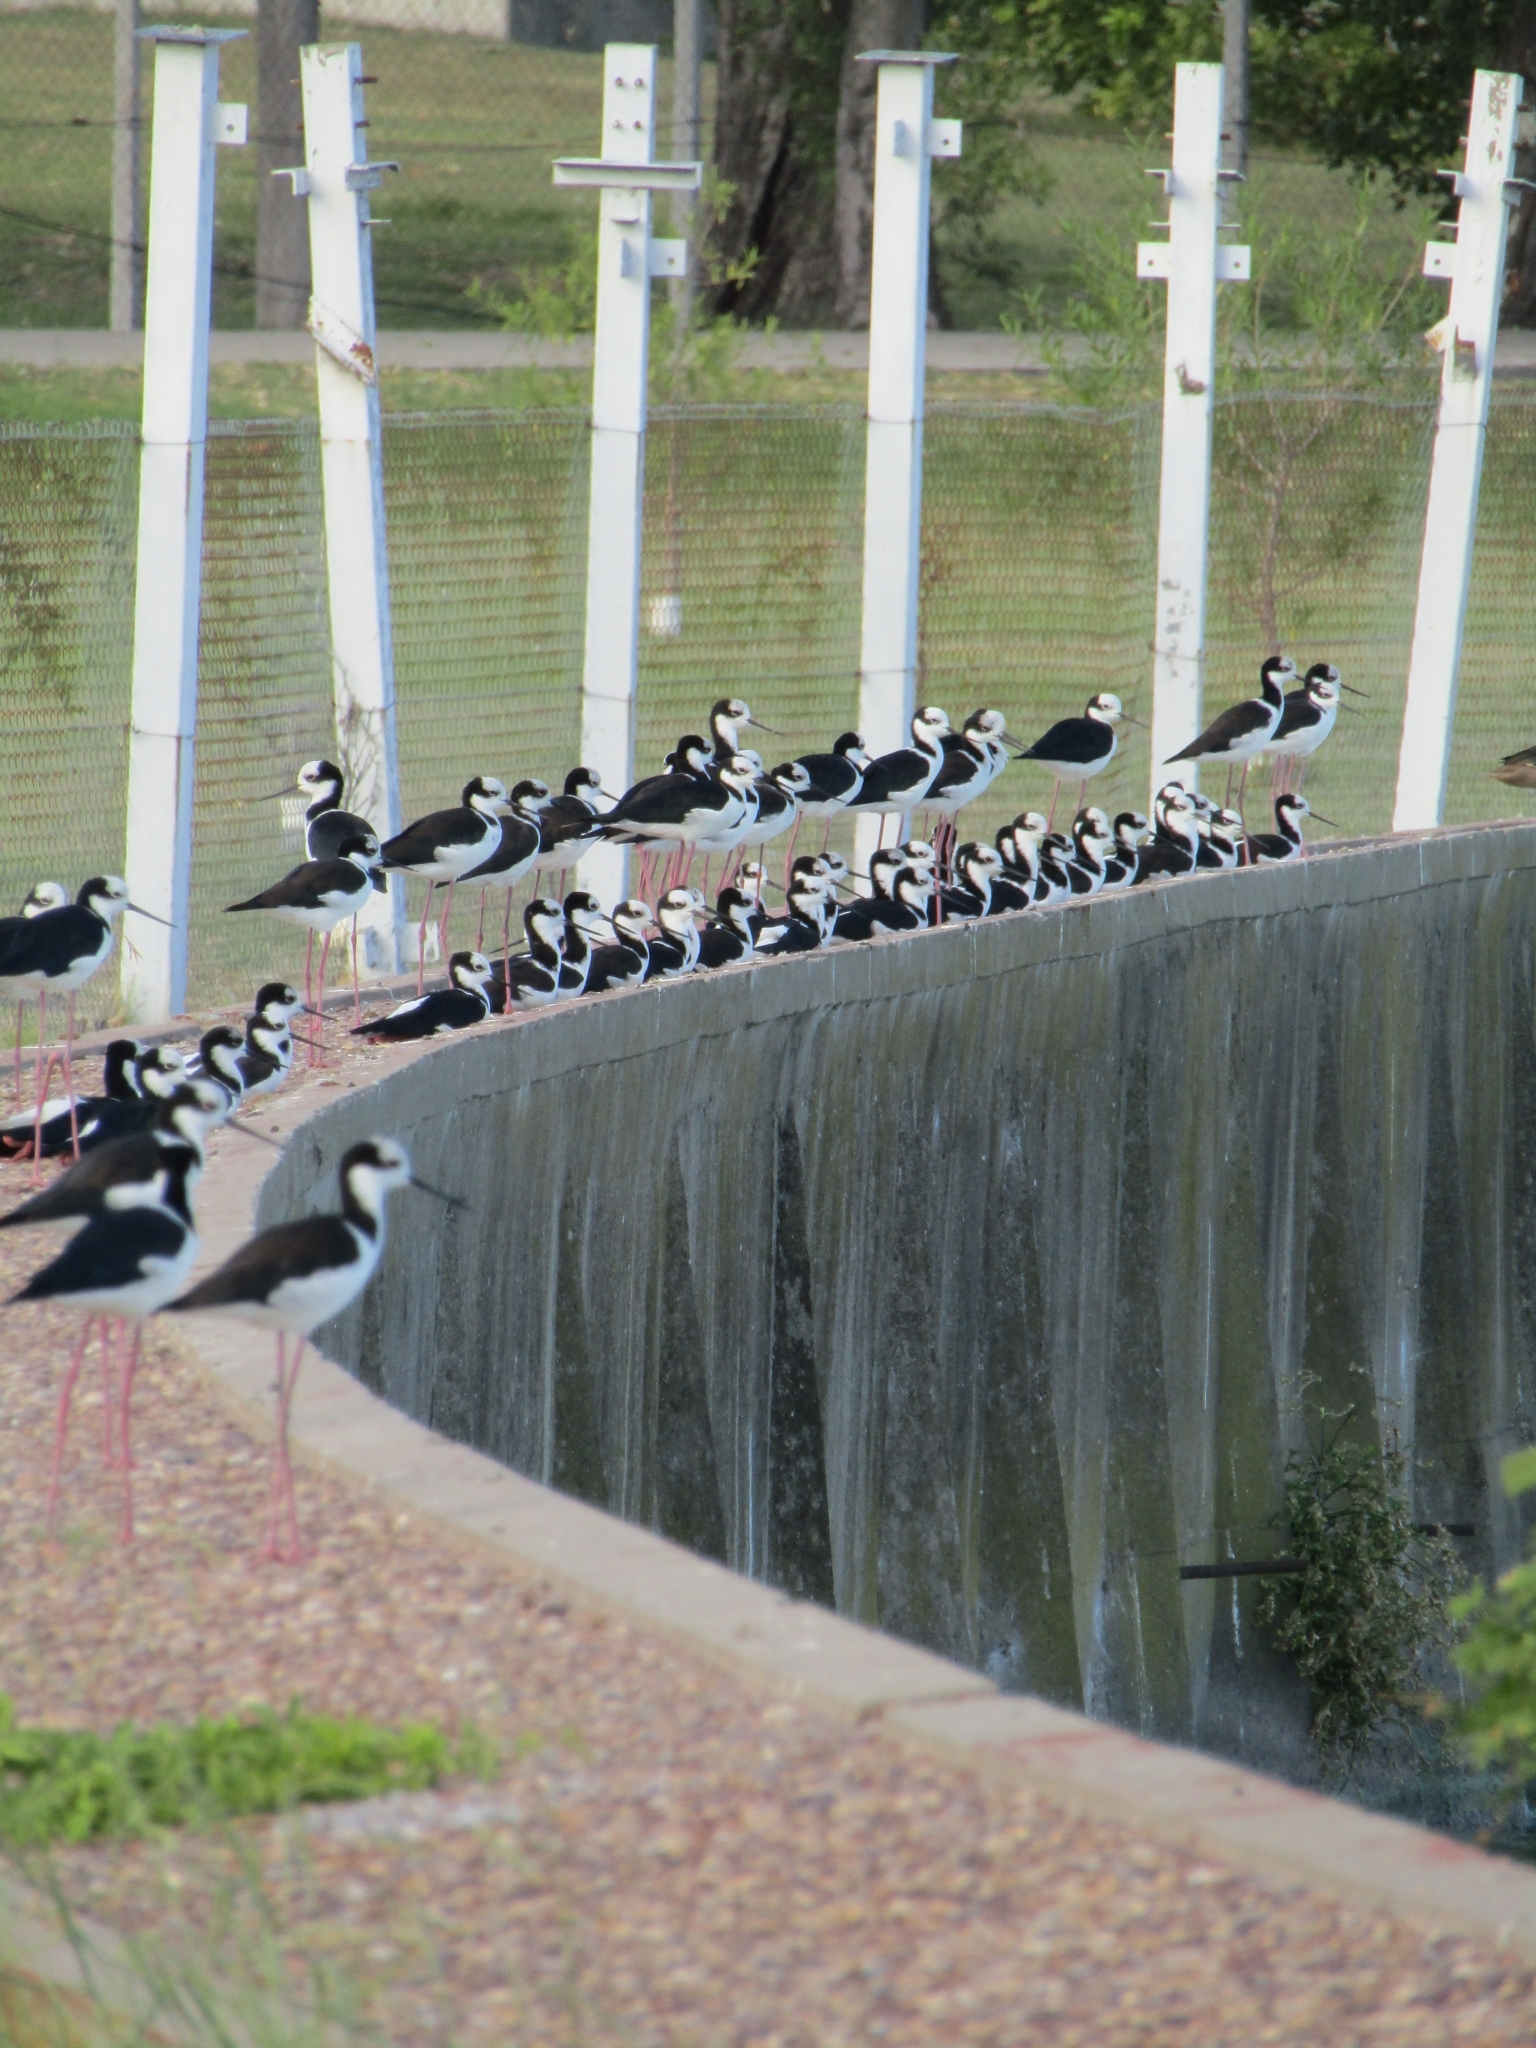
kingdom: Animalia
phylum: Chordata
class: Aves
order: Charadriiformes
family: Recurvirostridae
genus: Himantopus
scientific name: Himantopus mexicanus
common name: Black-necked stilt
